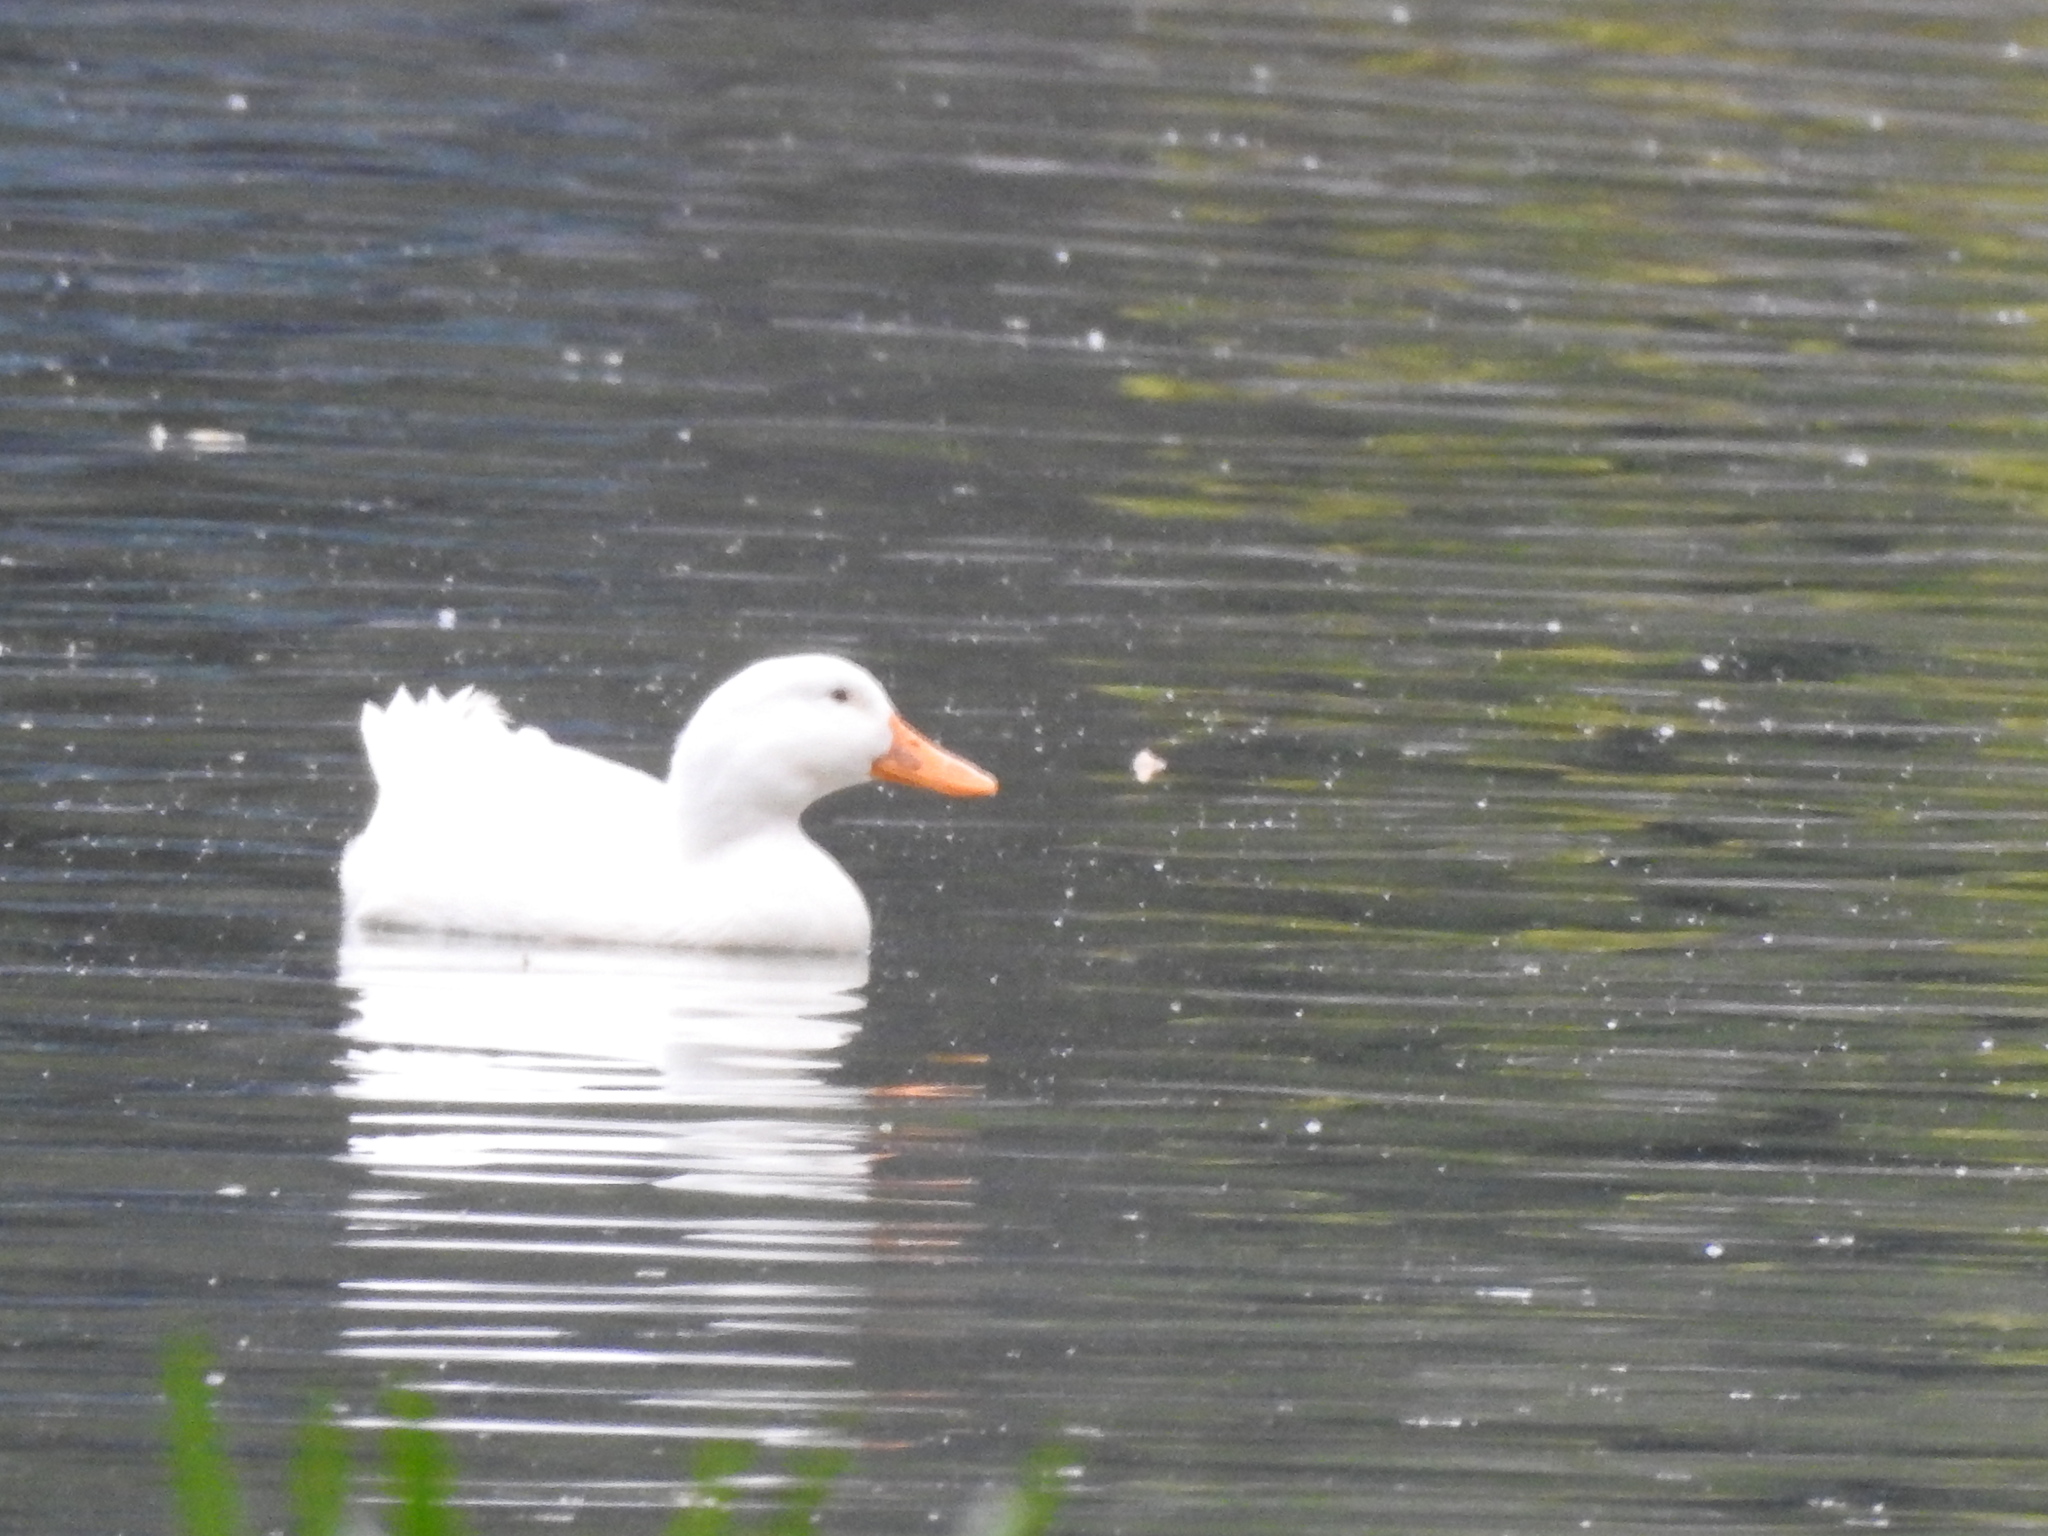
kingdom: Animalia
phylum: Chordata
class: Aves
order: Anseriformes
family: Anatidae
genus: Anas
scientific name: Anas platyrhynchos
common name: Mallard
